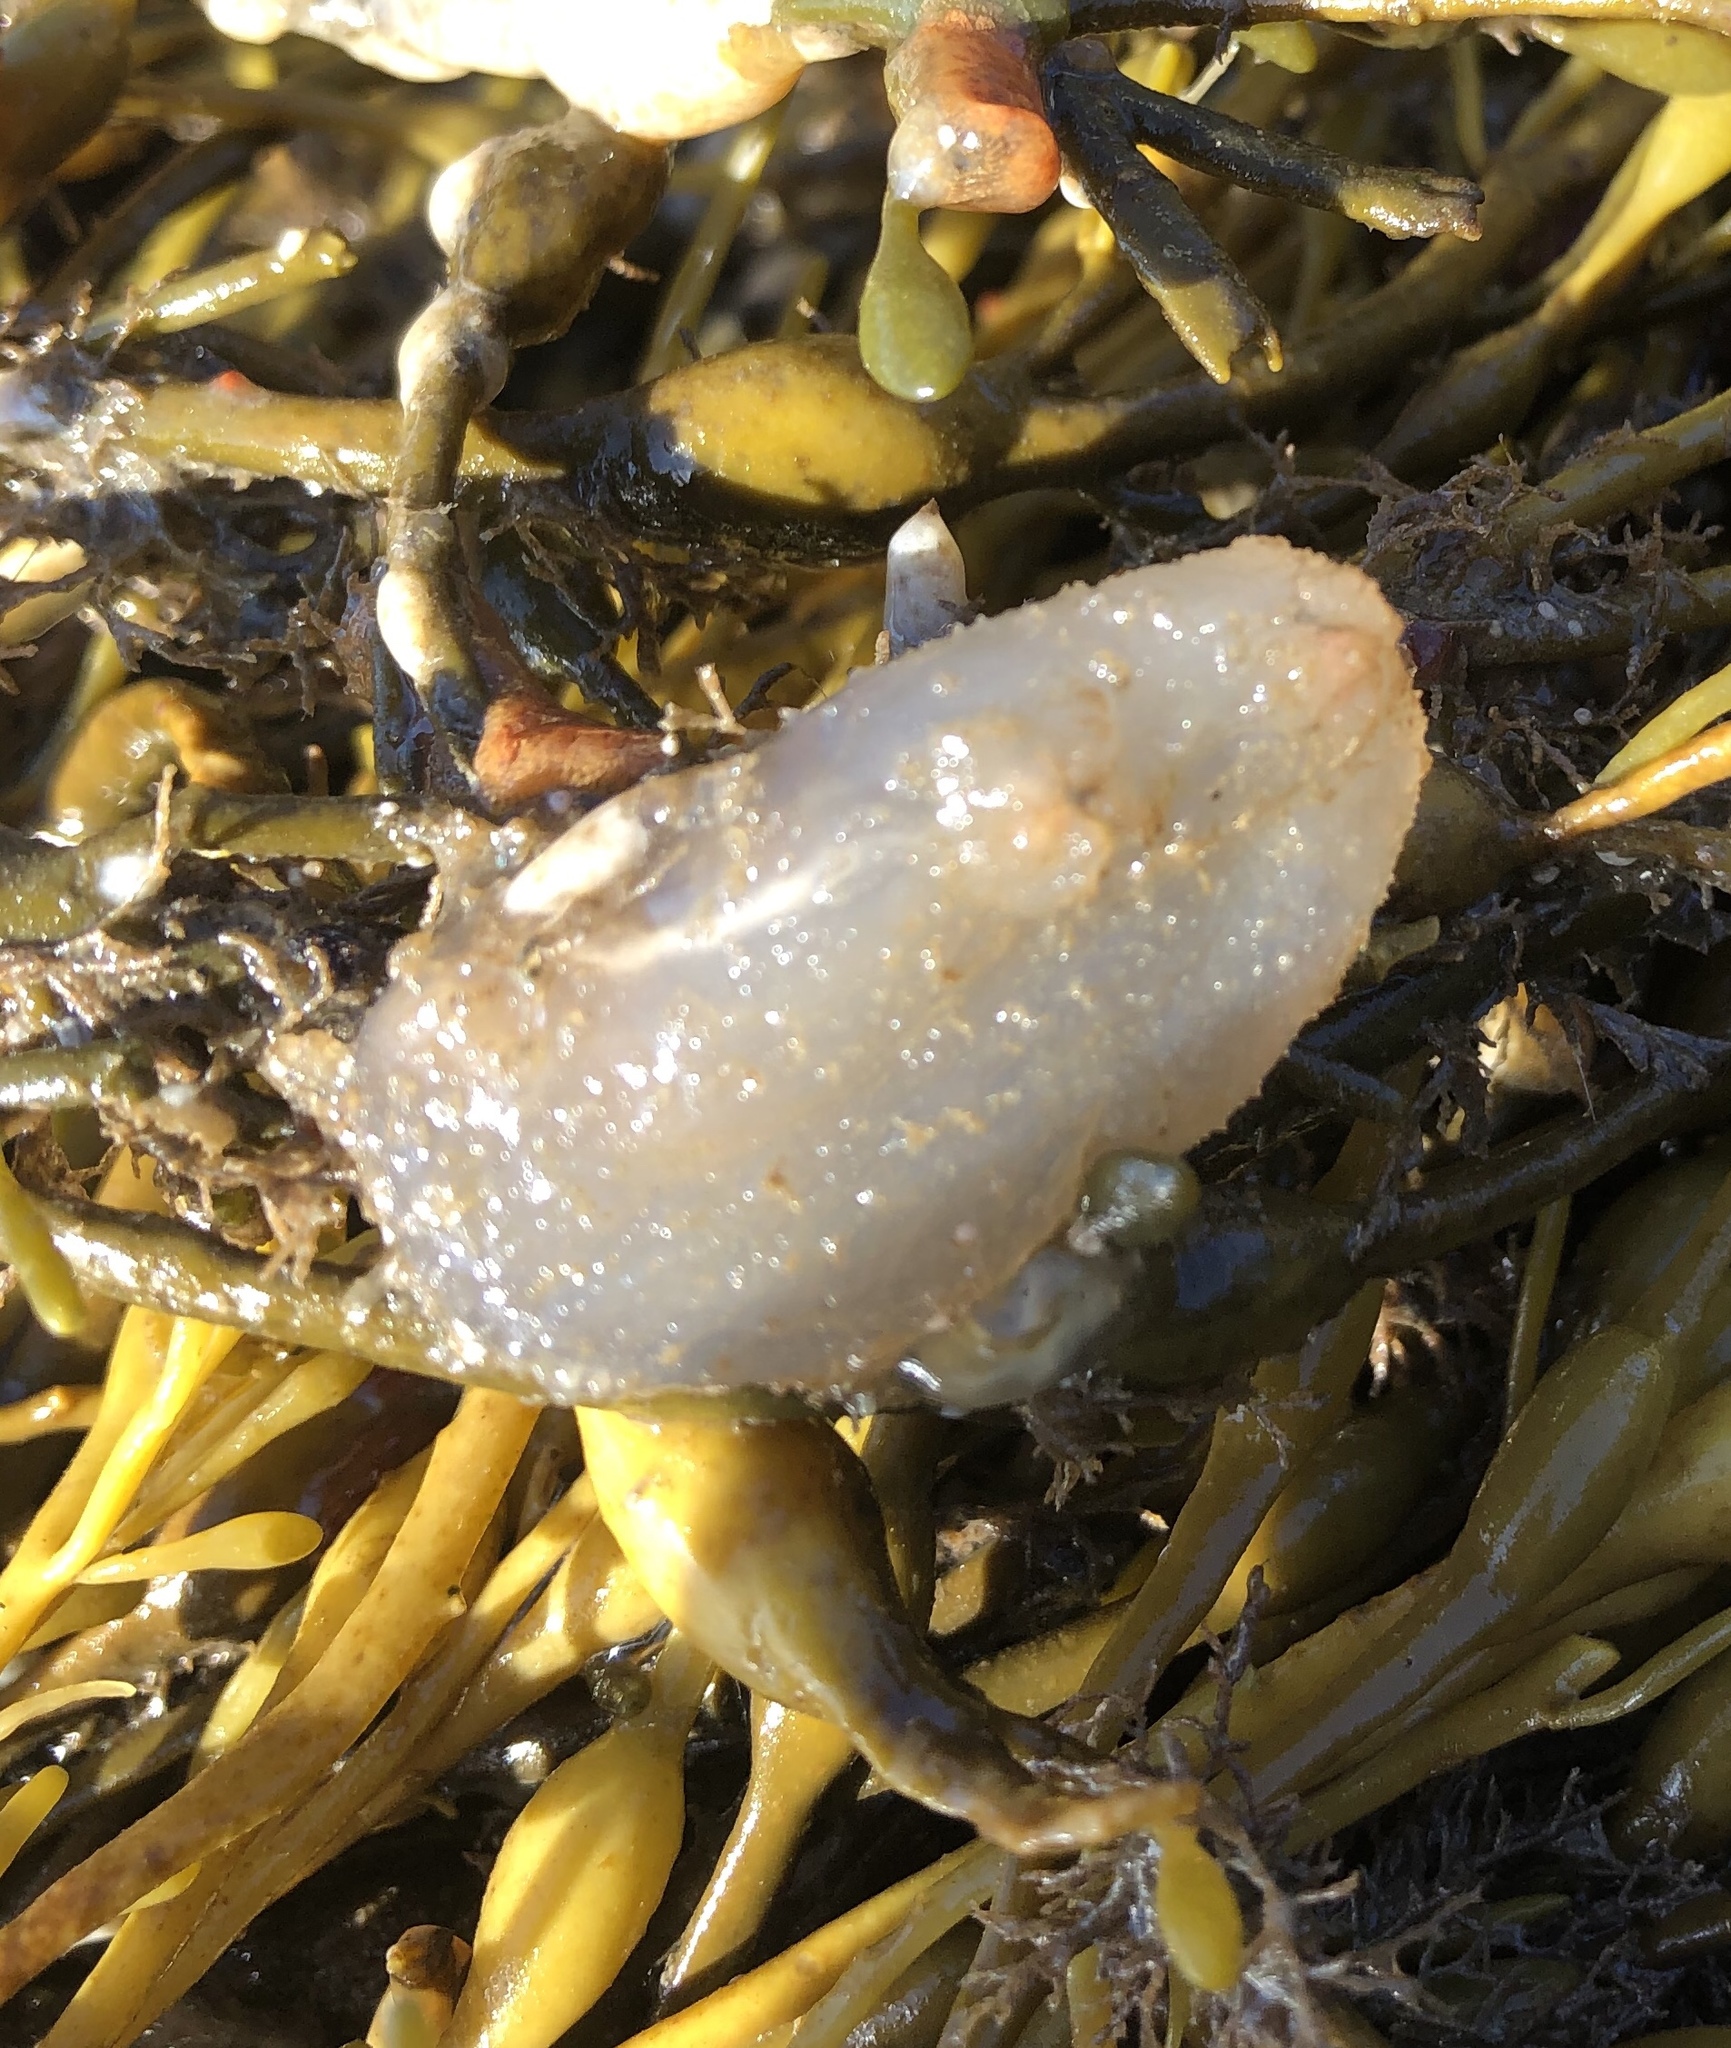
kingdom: Animalia
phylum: Chordata
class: Ascidiacea
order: Phlebobranchia
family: Ascidiidae
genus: Ascidiella
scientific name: Ascidiella aspersa
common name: Dirty sea-squirt
